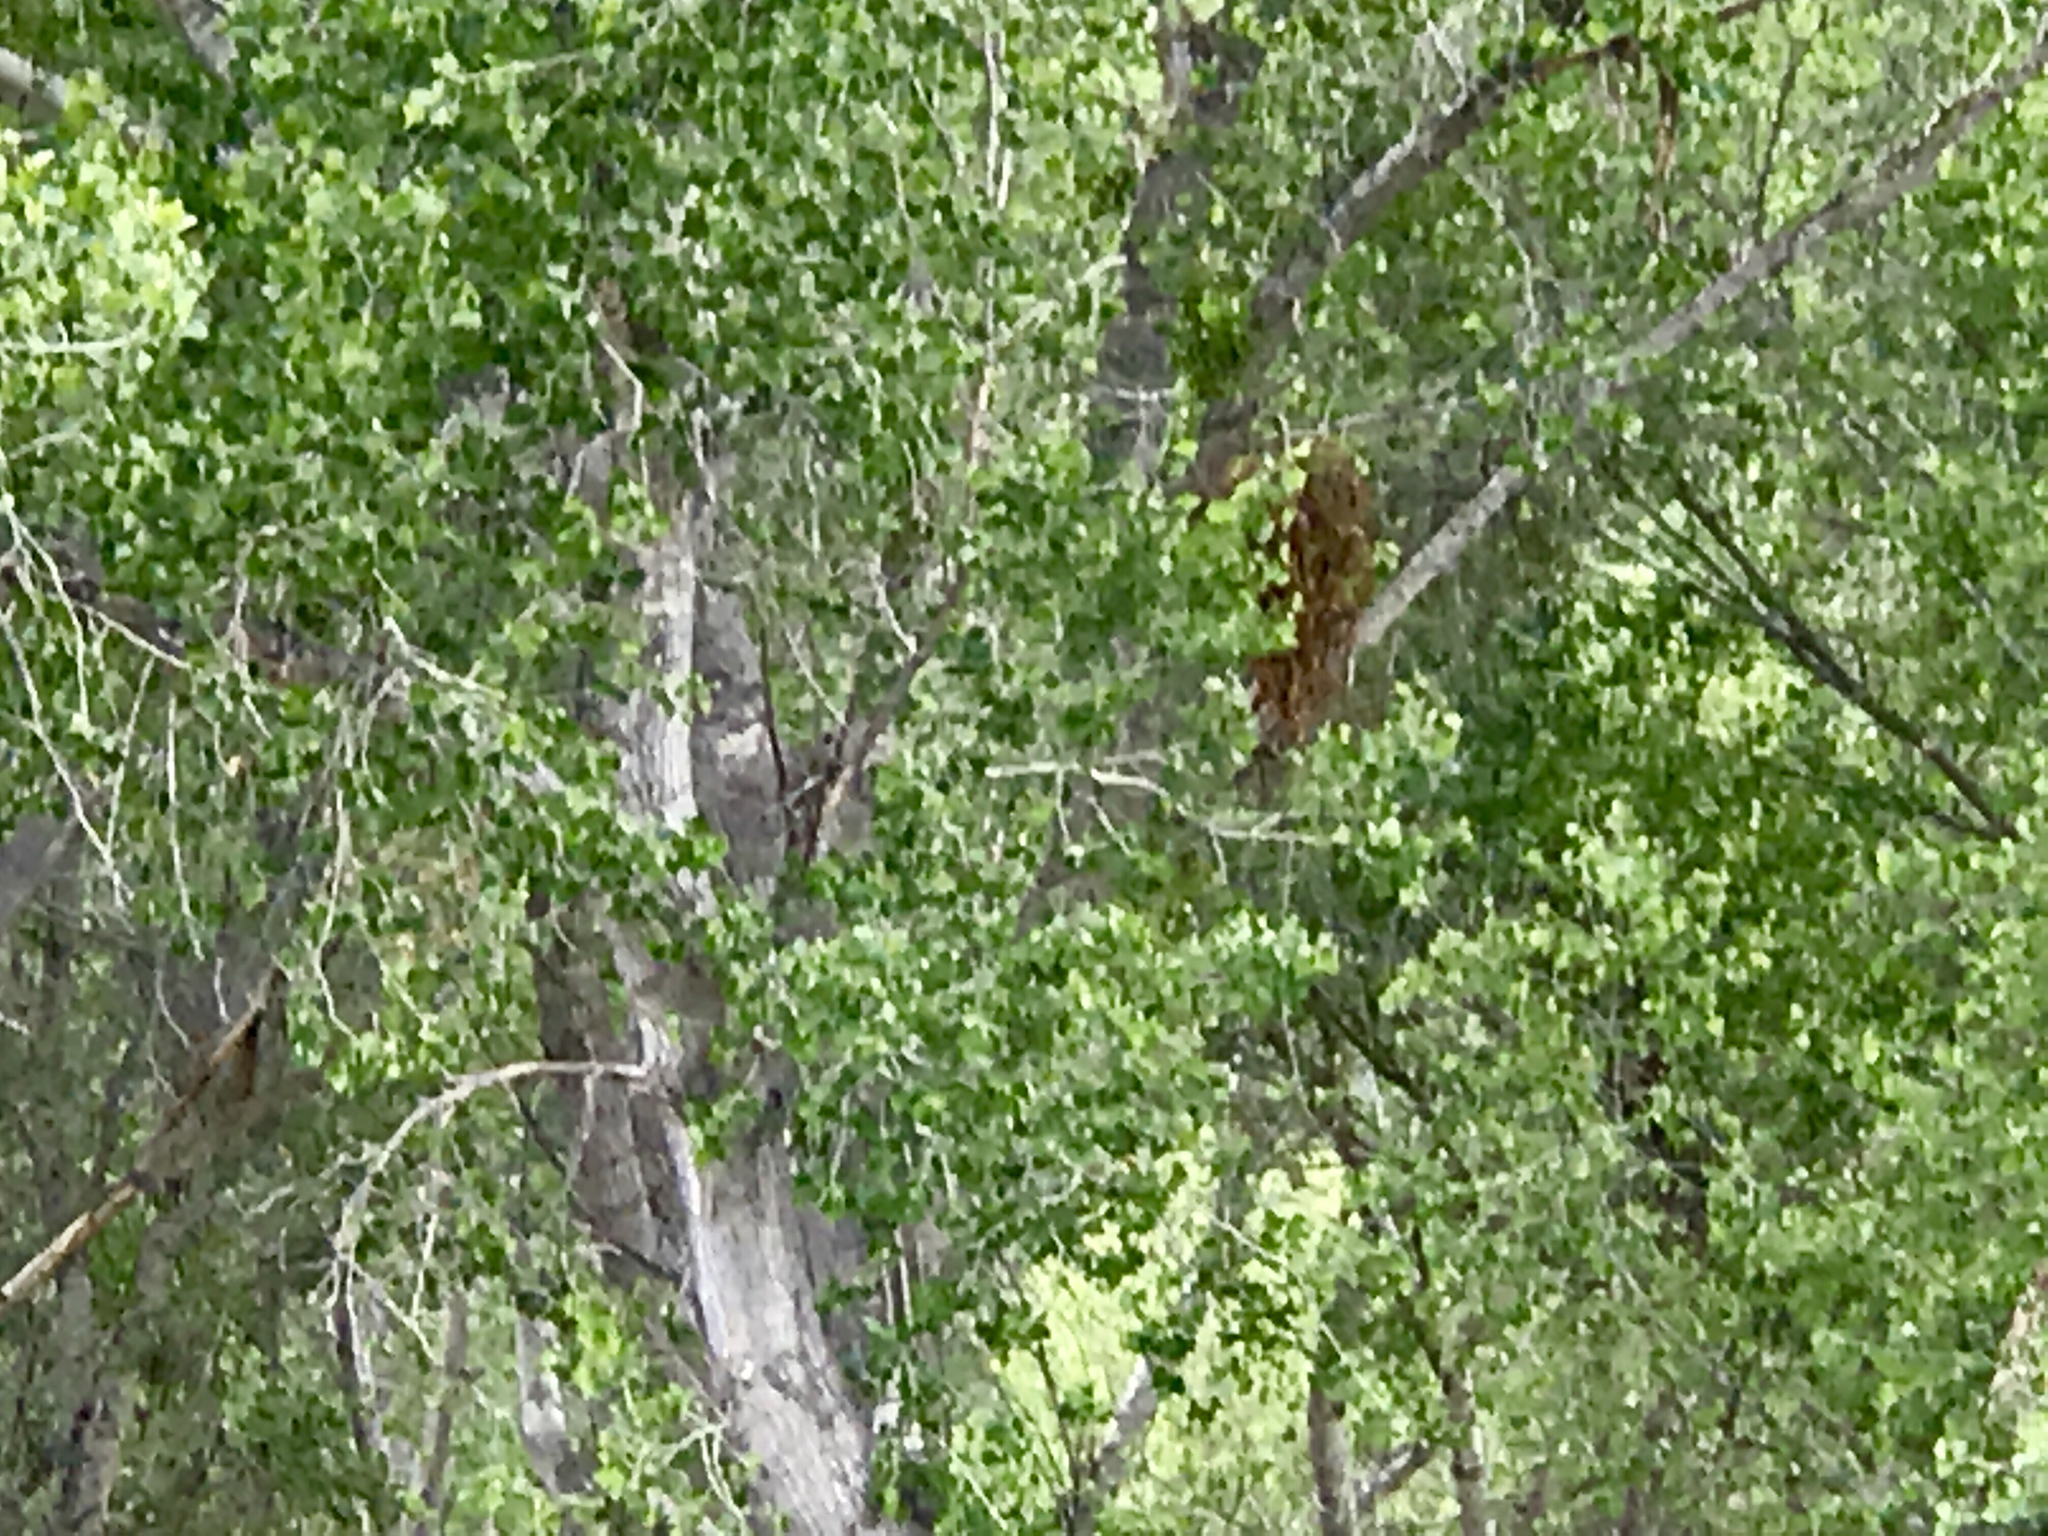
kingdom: Plantae
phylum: Tracheophyta
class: Magnoliopsida
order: Malpighiales
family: Salicaceae
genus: Populus
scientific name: Populus fremontii
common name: Fremont's cottonwood
